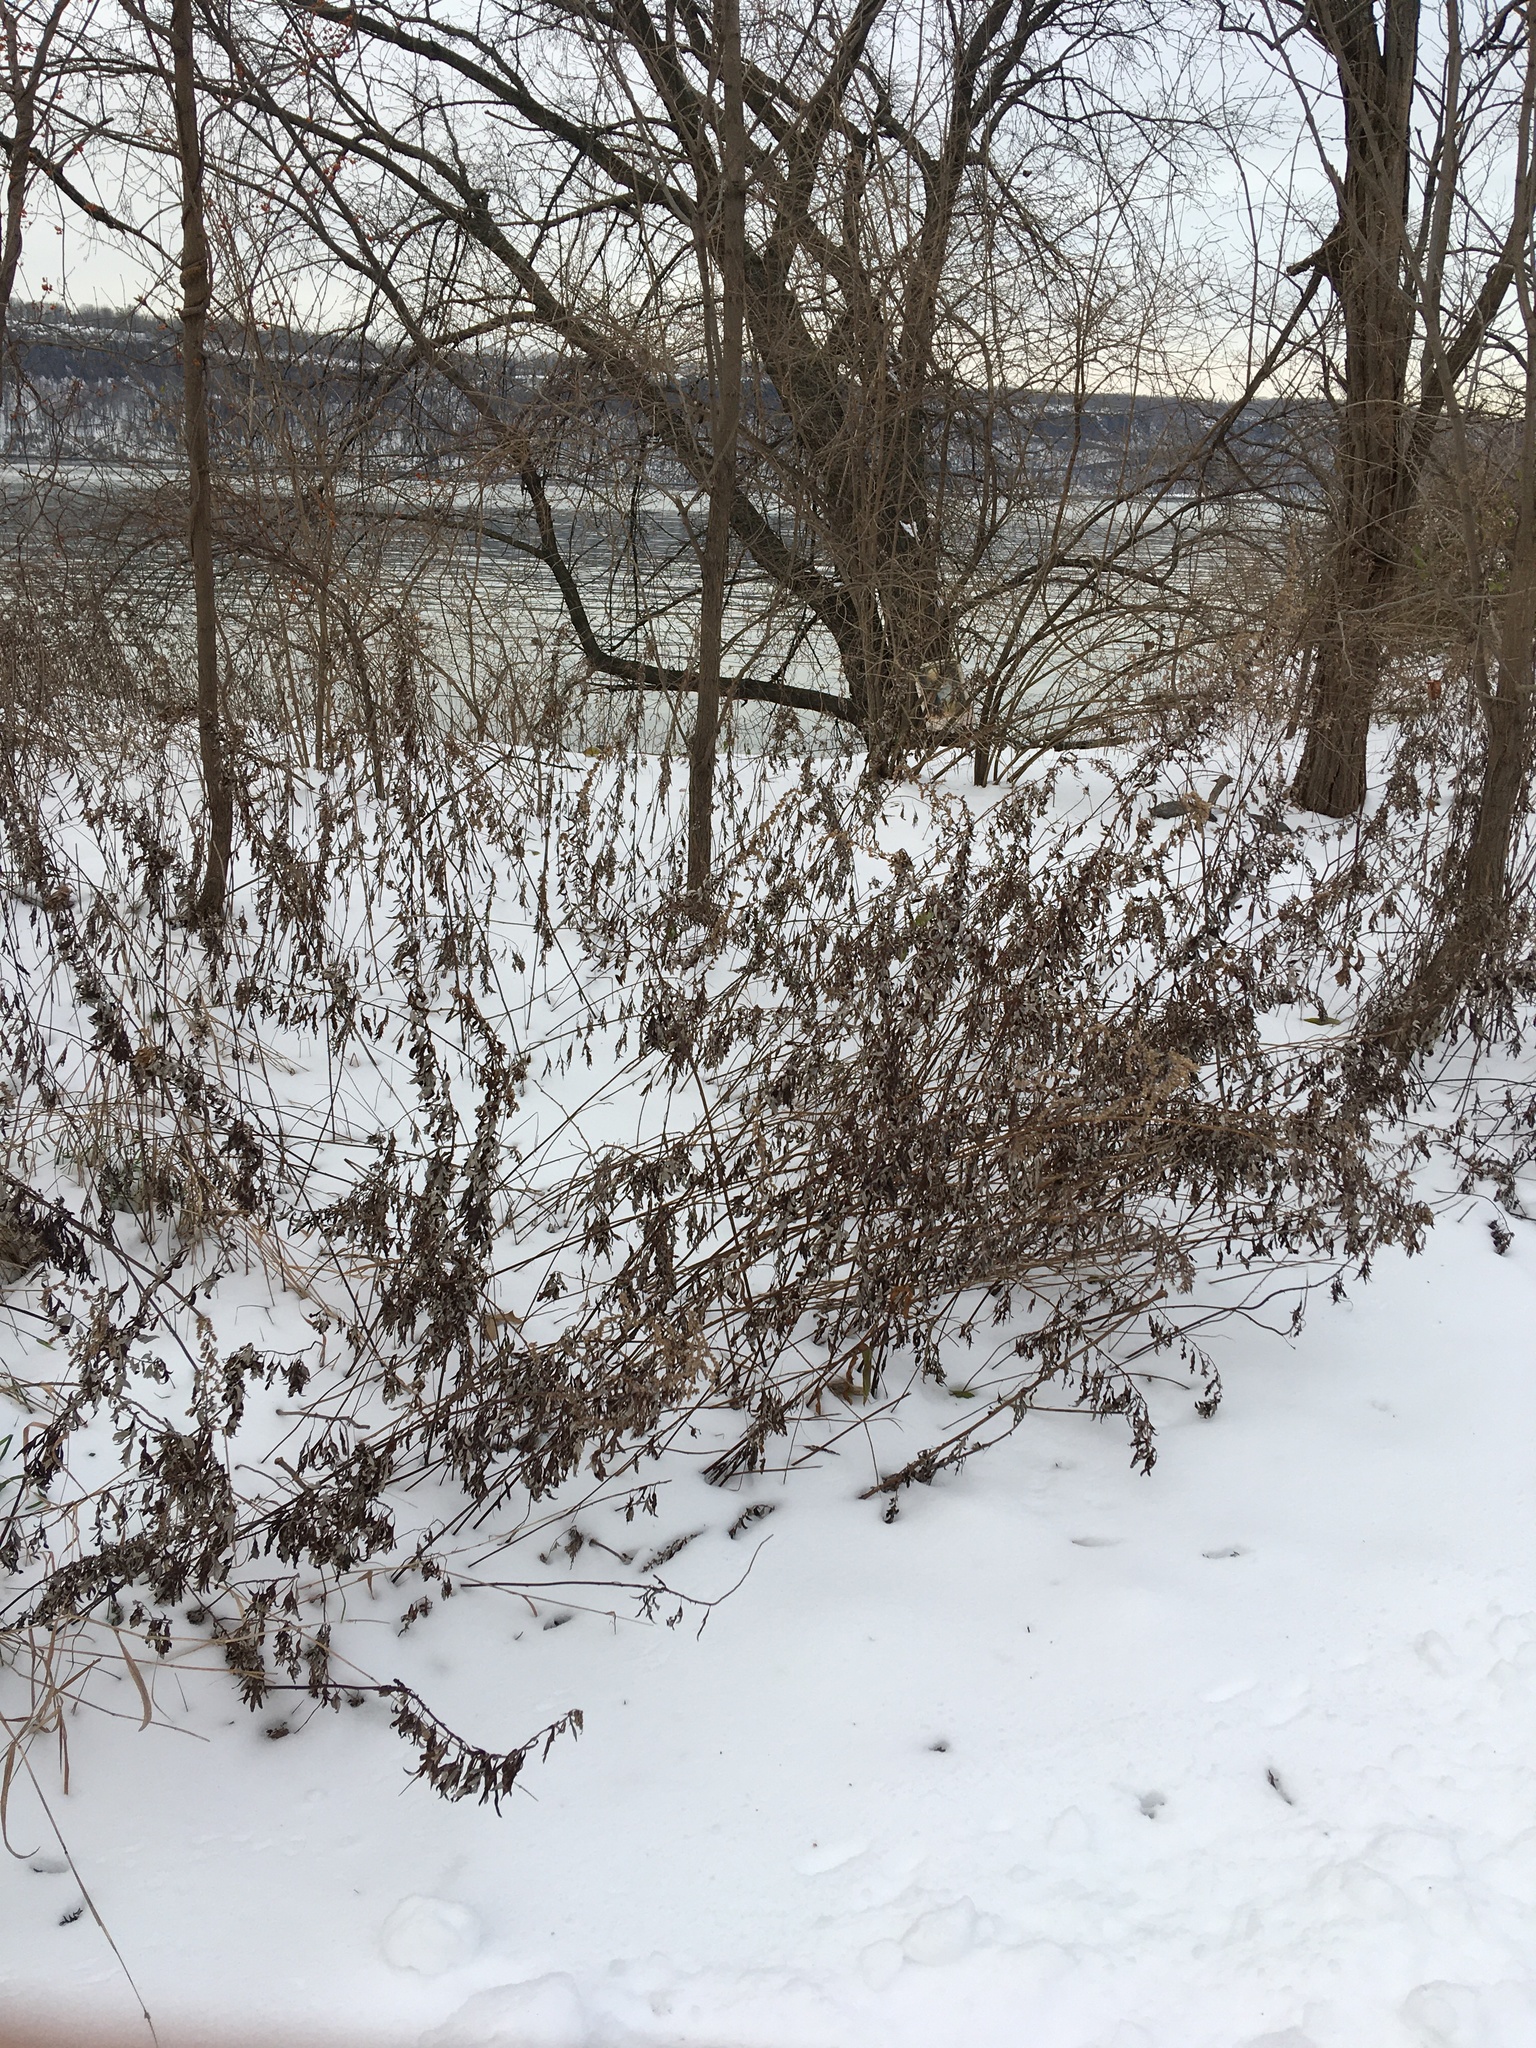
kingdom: Plantae
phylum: Tracheophyta
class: Magnoliopsida
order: Asterales
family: Asteraceae
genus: Artemisia
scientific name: Artemisia vulgaris
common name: Mugwort
